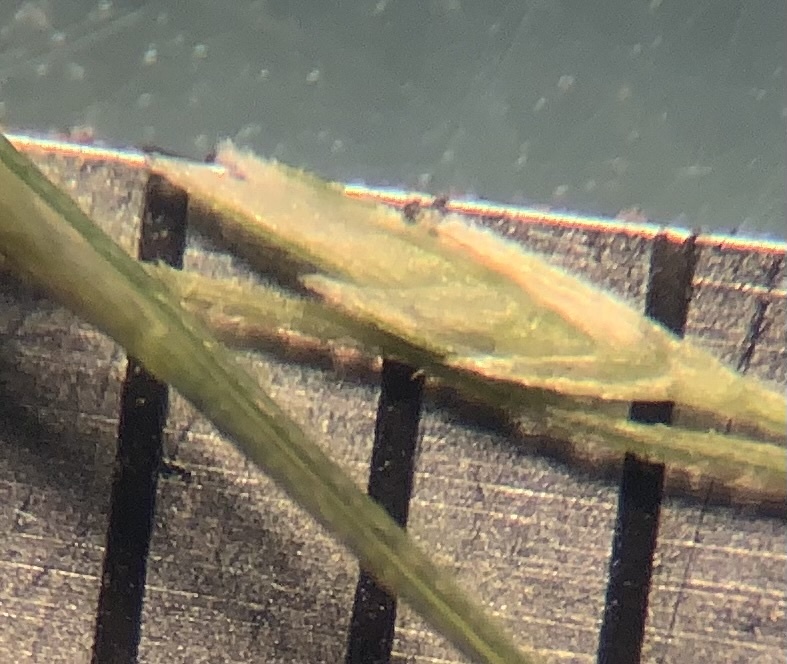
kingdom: Plantae
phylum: Tracheophyta
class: Liliopsida
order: Poales
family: Poaceae
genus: Eragrostis
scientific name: Eragrostis refracta
